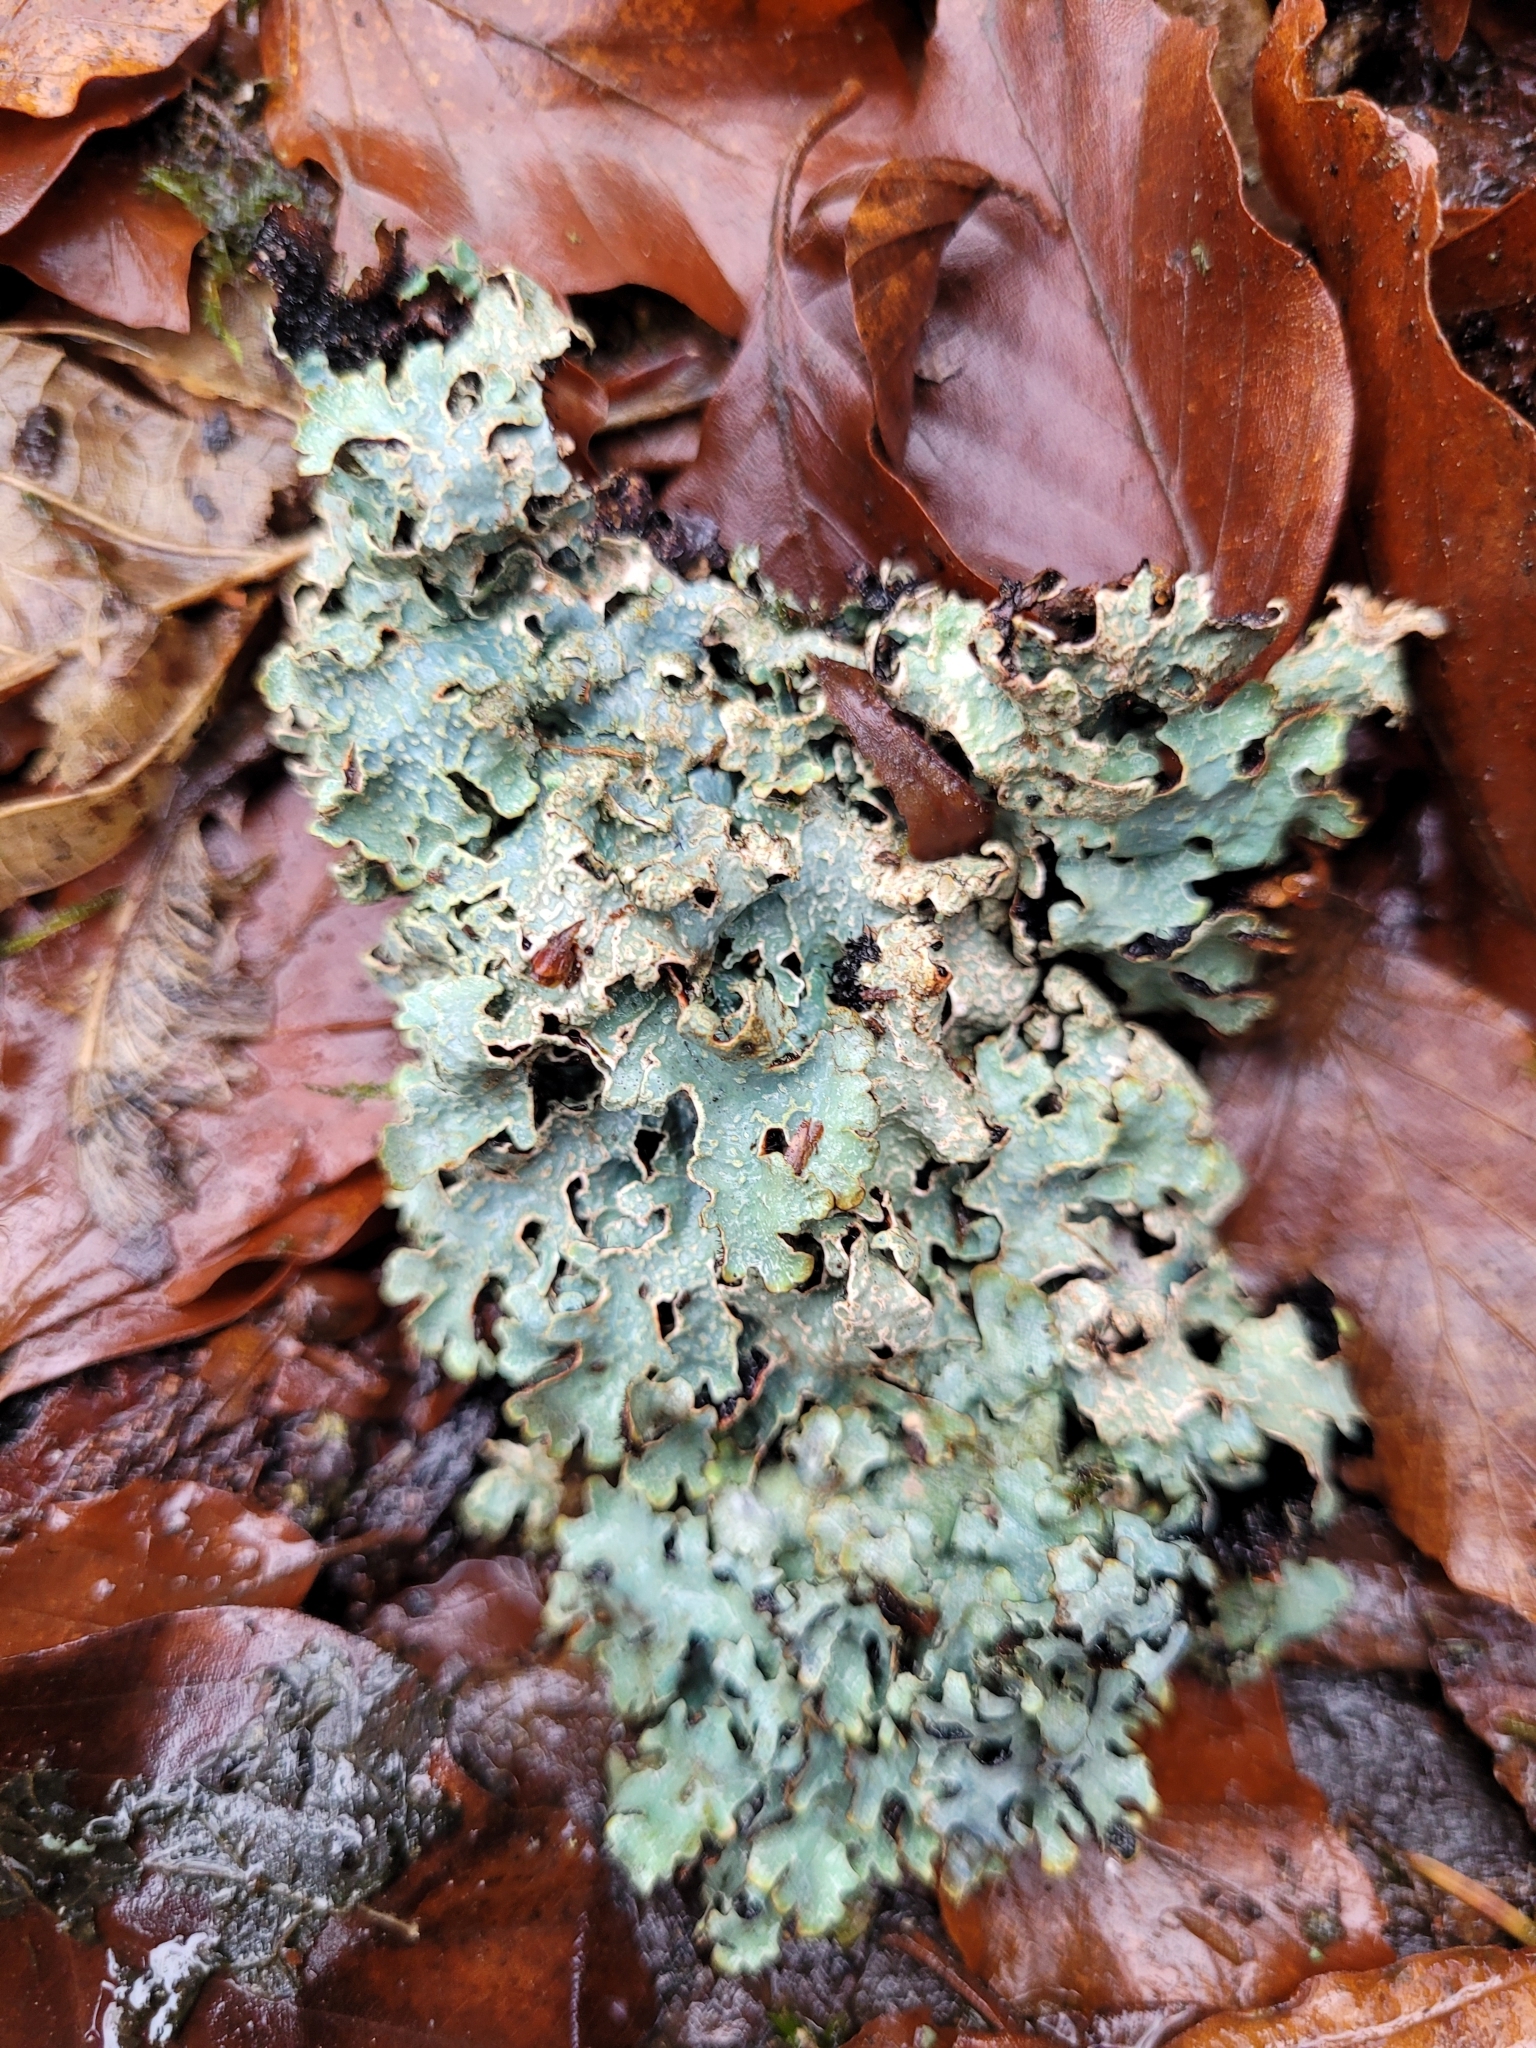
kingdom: Fungi
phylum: Ascomycota
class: Lecanoromycetes
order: Lecanorales
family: Parmeliaceae
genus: Parmelia
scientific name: Parmelia sulcata
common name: Netted shield lichen
